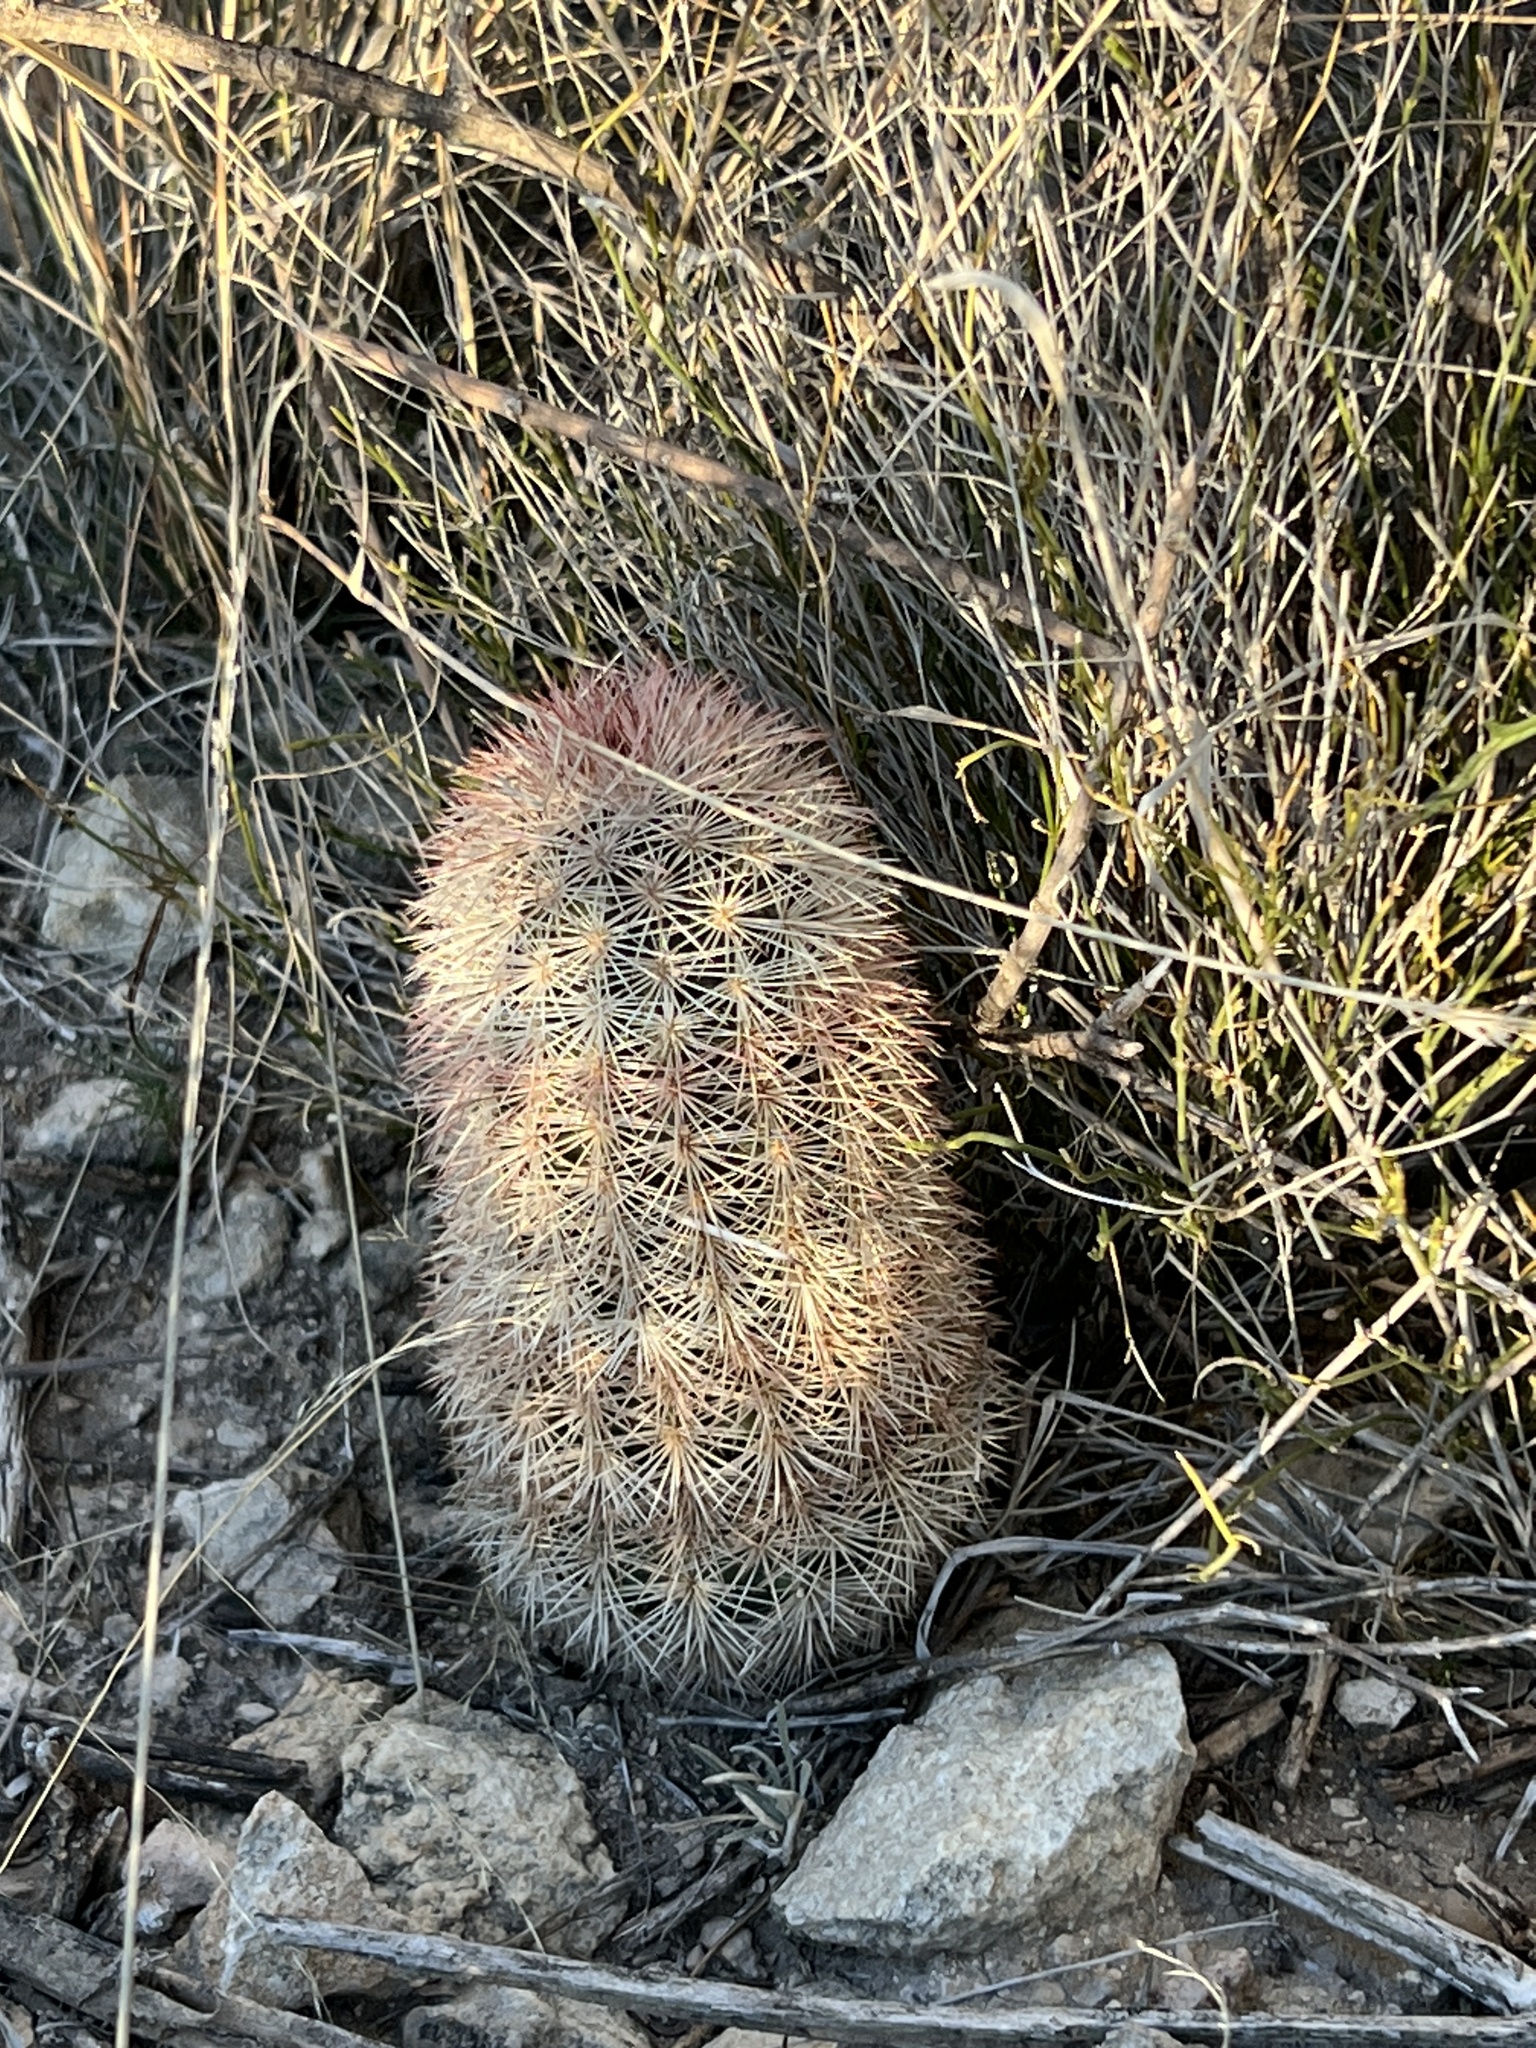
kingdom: Plantae
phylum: Tracheophyta
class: Magnoliopsida
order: Caryophyllales
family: Cactaceae
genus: Echinocereus
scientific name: Echinocereus dasyacanthus
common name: Spiny hedgehog cactus
